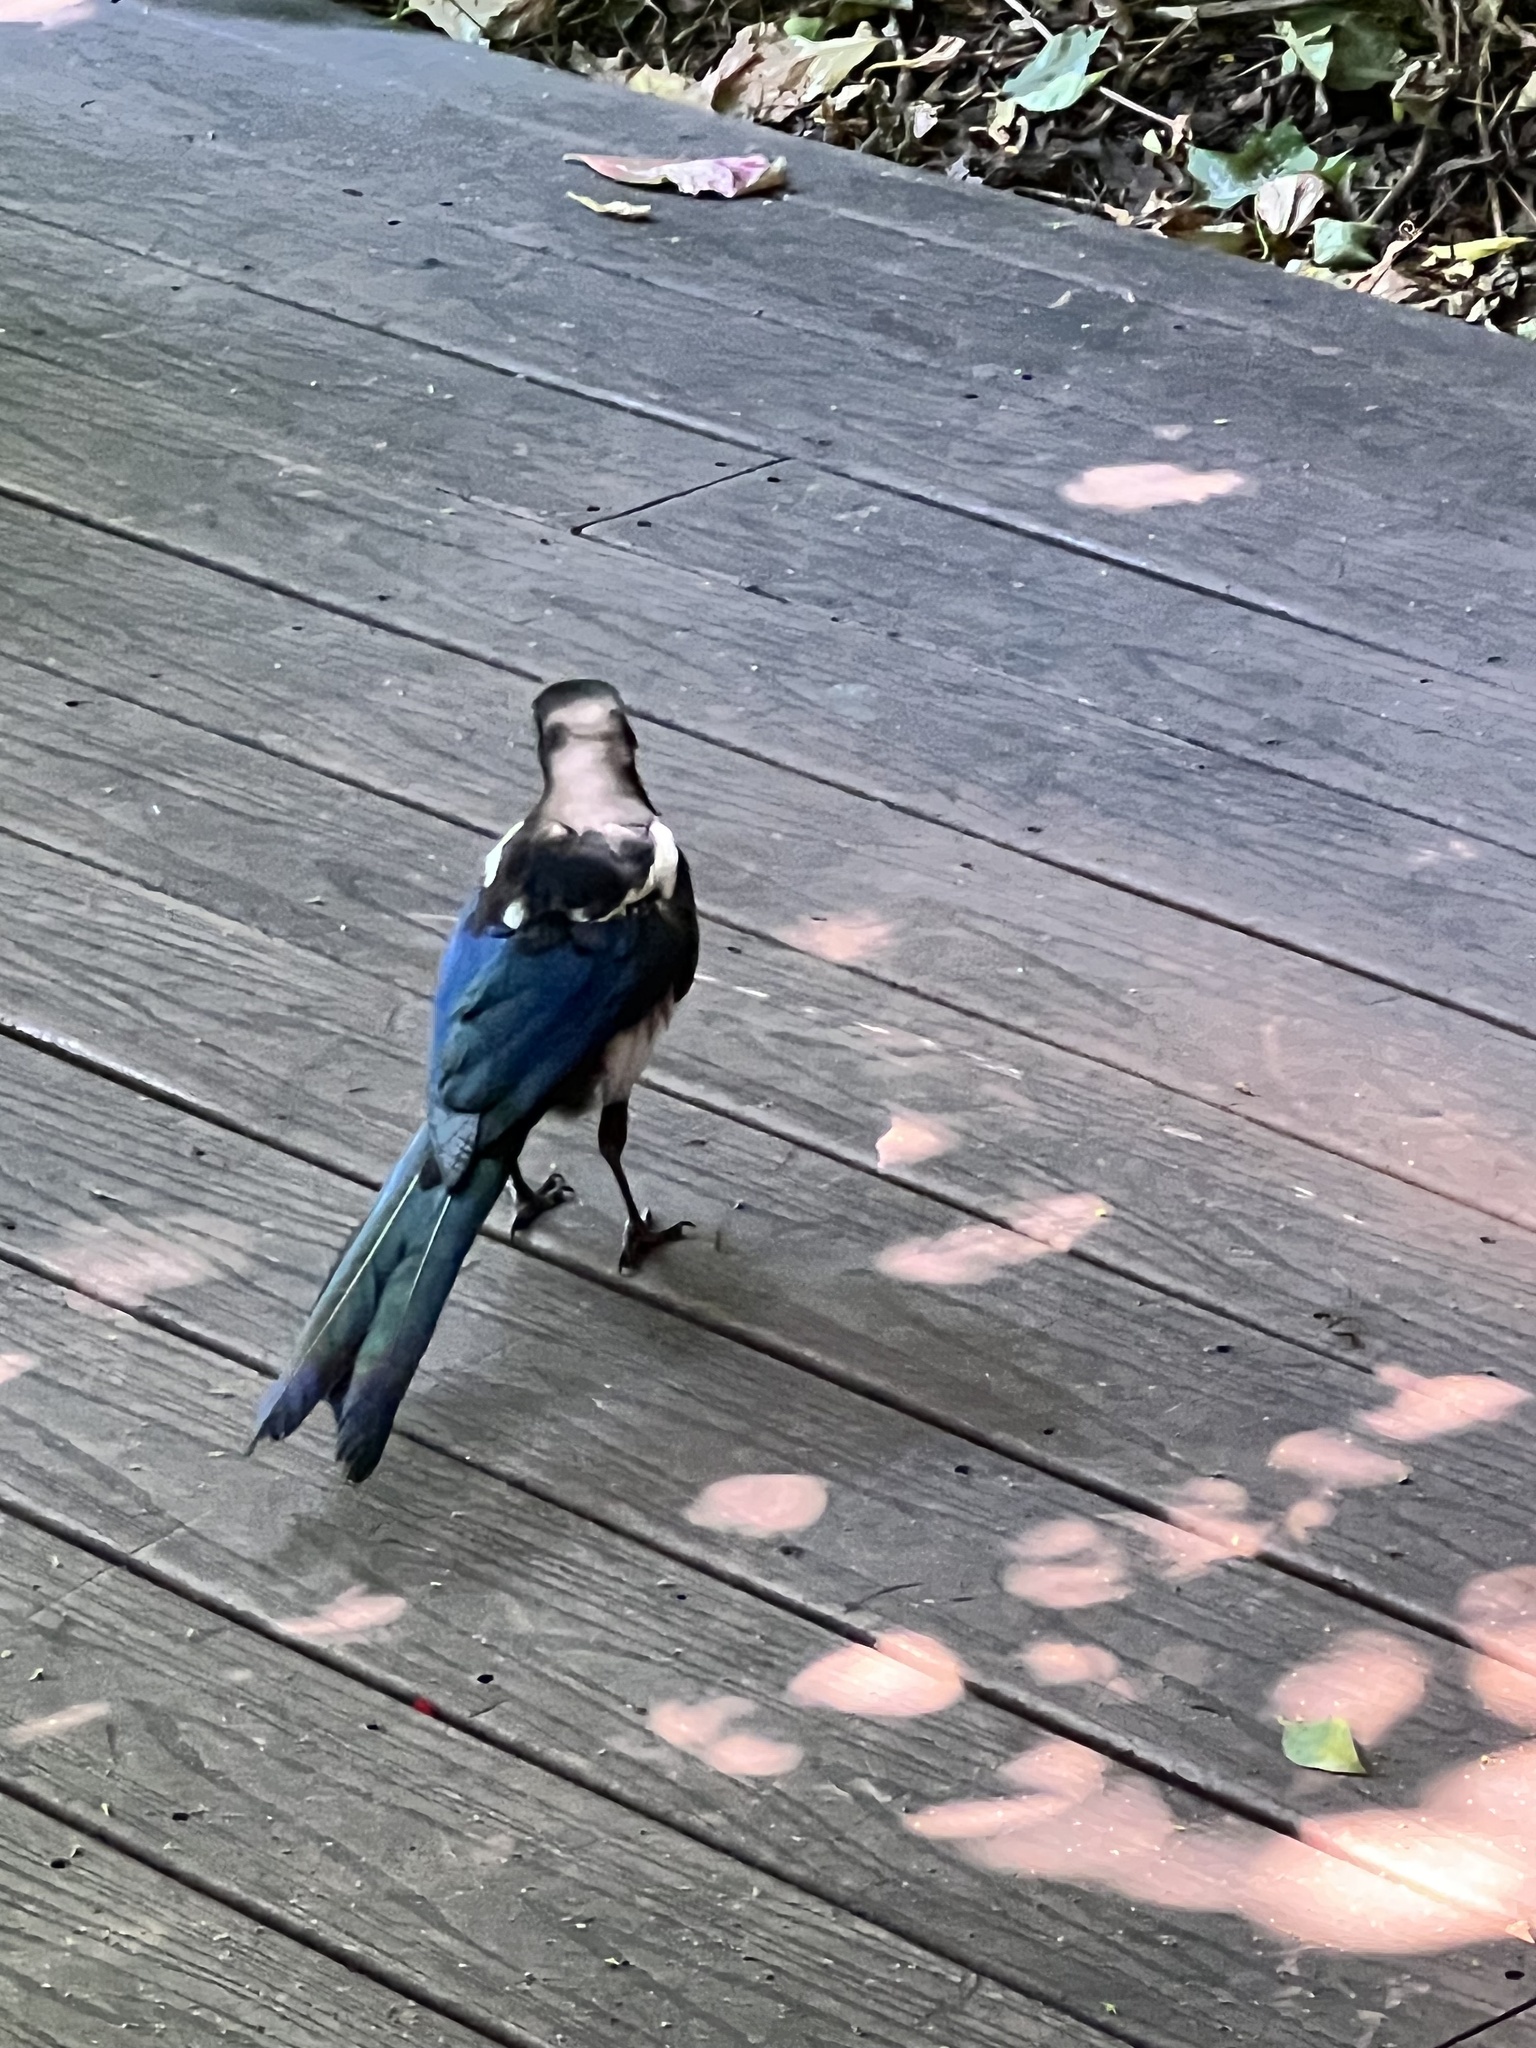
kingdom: Animalia
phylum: Chordata
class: Aves
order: Passeriformes
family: Corvidae
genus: Pica
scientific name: Pica hudsonia
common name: Black-billed magpie
